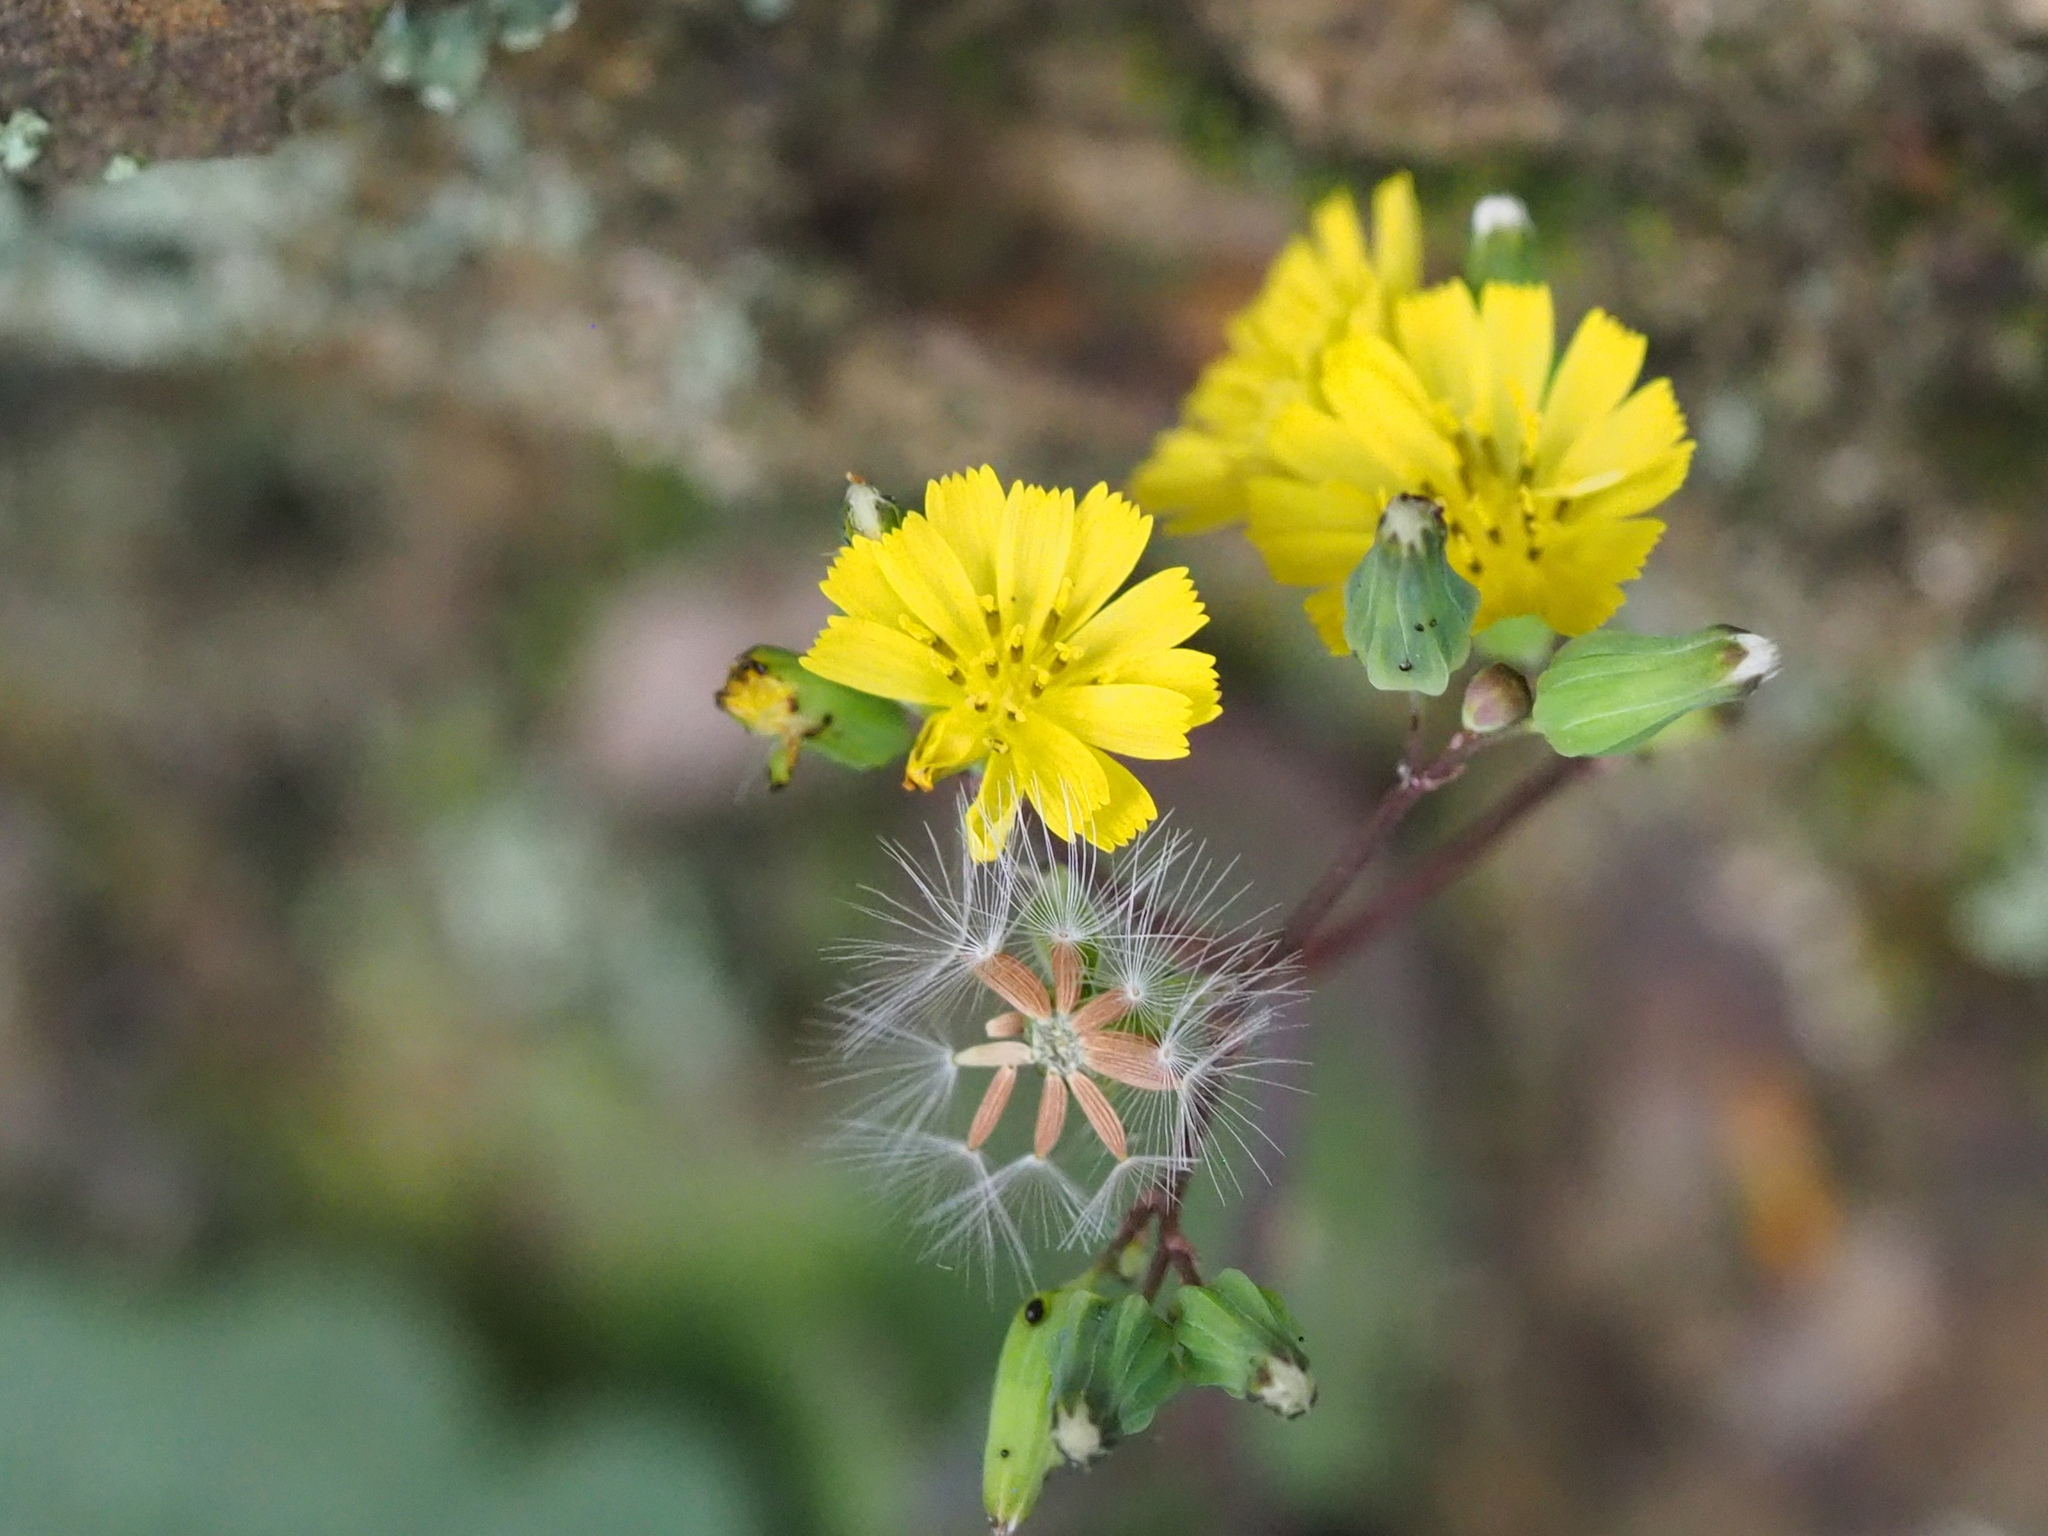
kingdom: Plantae
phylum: Tracheophyta
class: Magnoliopsida
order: Asterales
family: Asteraceae
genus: Youngia
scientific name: Youngia japonica
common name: Oriental false hawksbeard
